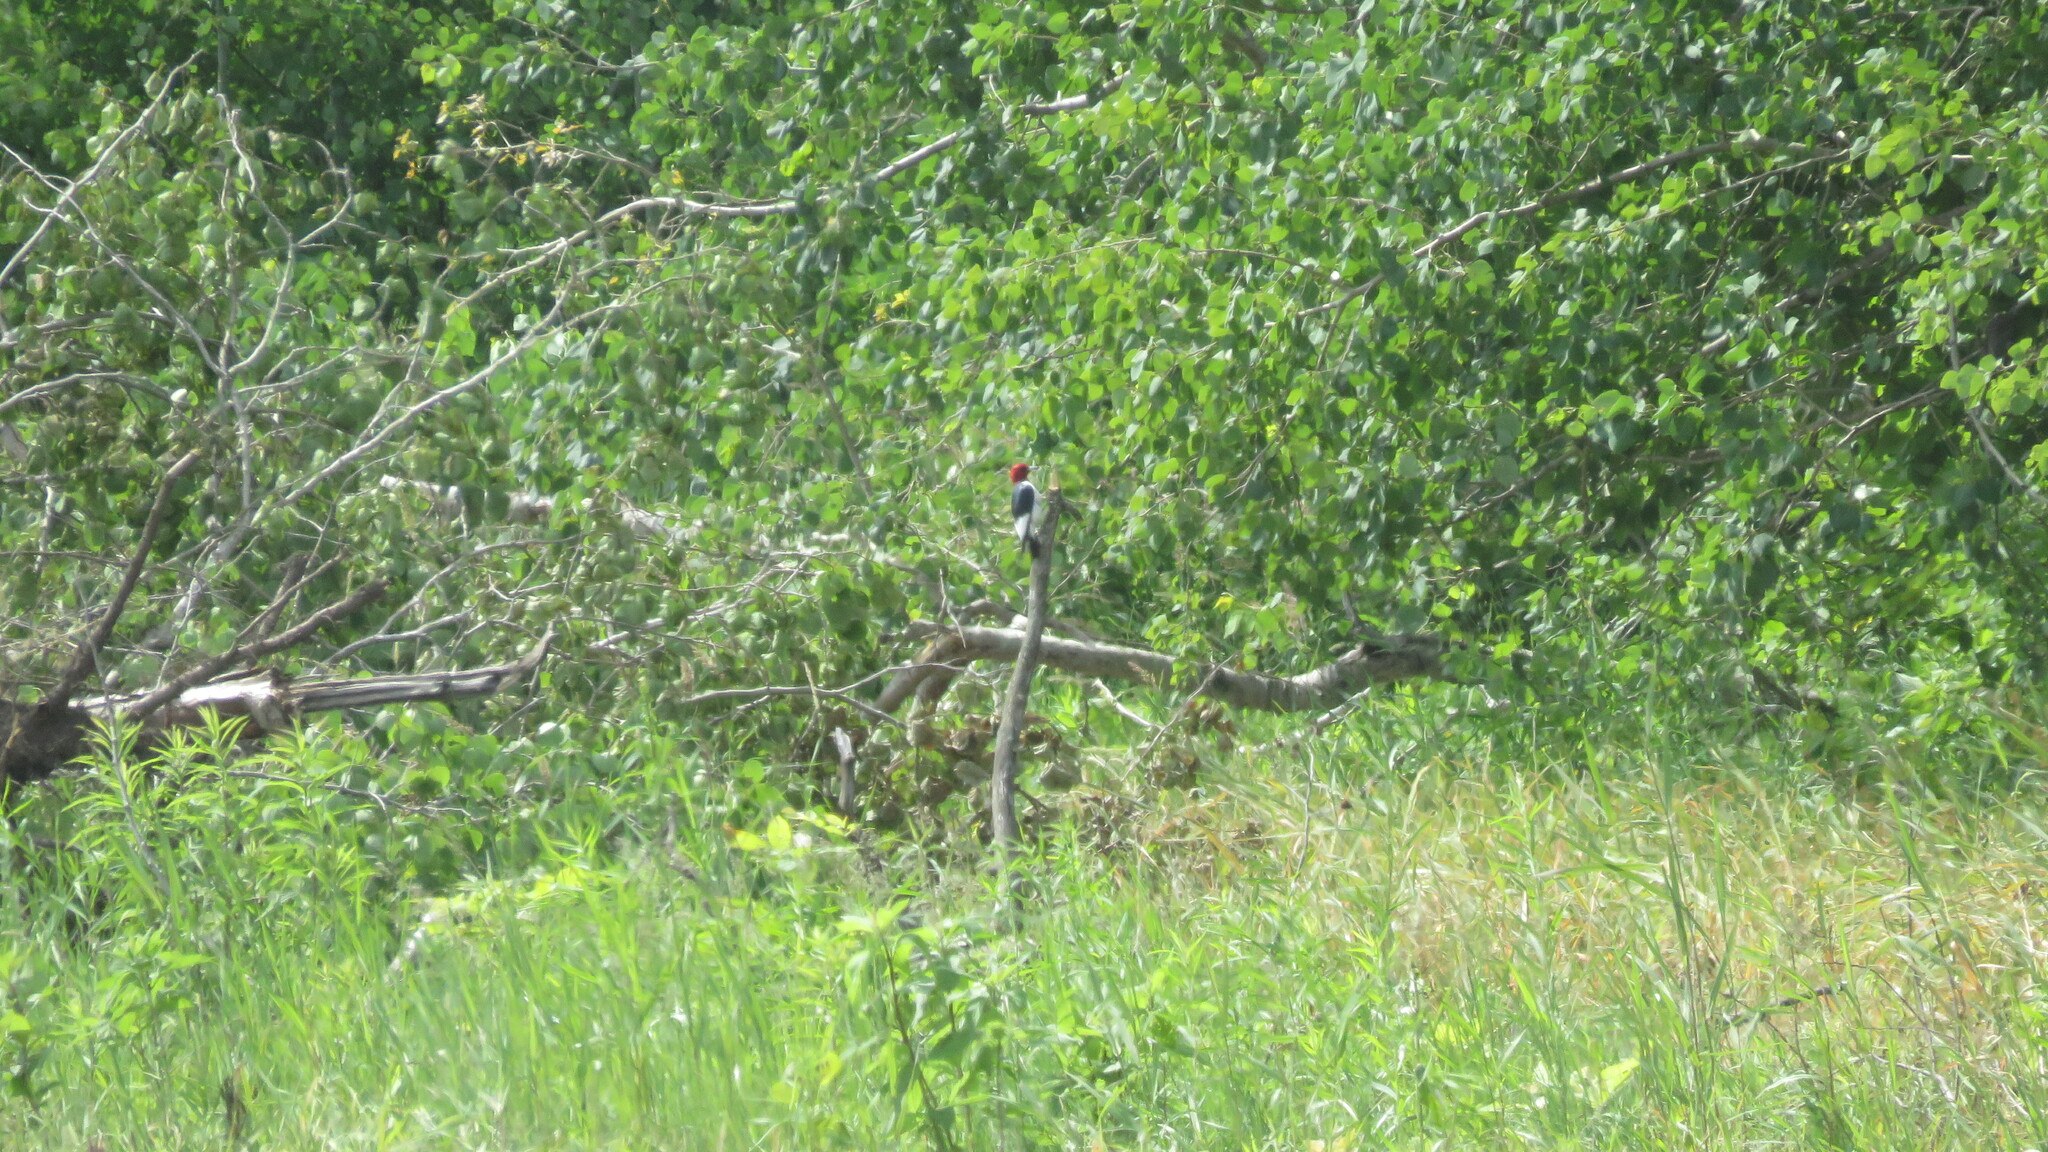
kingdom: Animalia
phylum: Chordata
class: Aves
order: Piciformes
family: Picidae
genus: Melanerpes
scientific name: Melanerpes erythrocephalus
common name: Red-headed woodpecker
